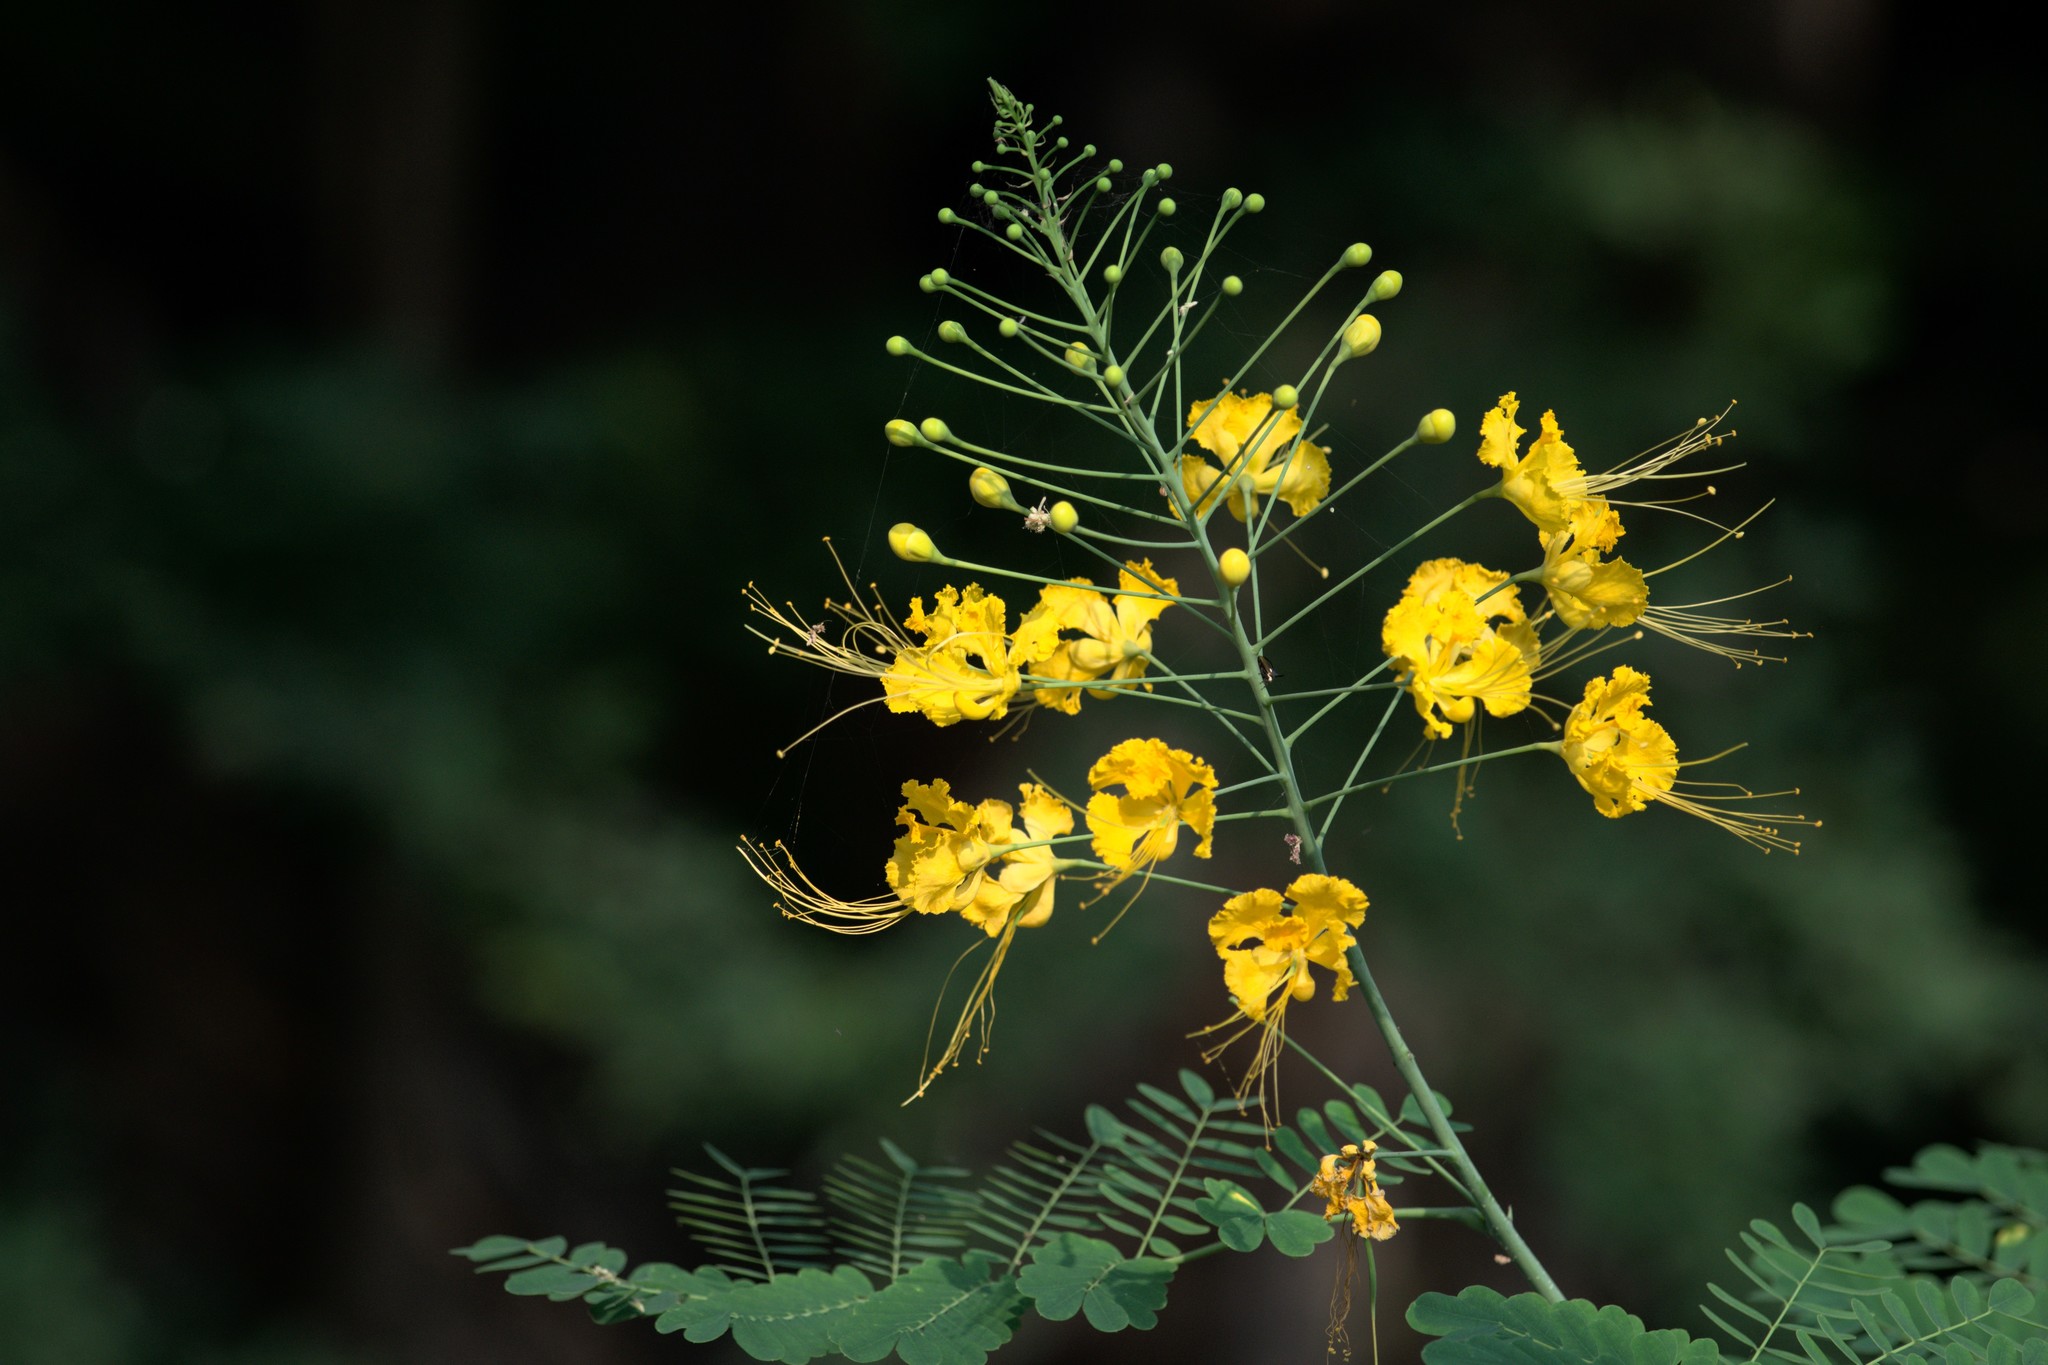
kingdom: Plantae
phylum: Tracheophyta
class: Magnoliopsida
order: Fabales
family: Fabaceae
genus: Caesalpinia
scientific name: Caesalpinia pulcherrima
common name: Pride-of-barbados
